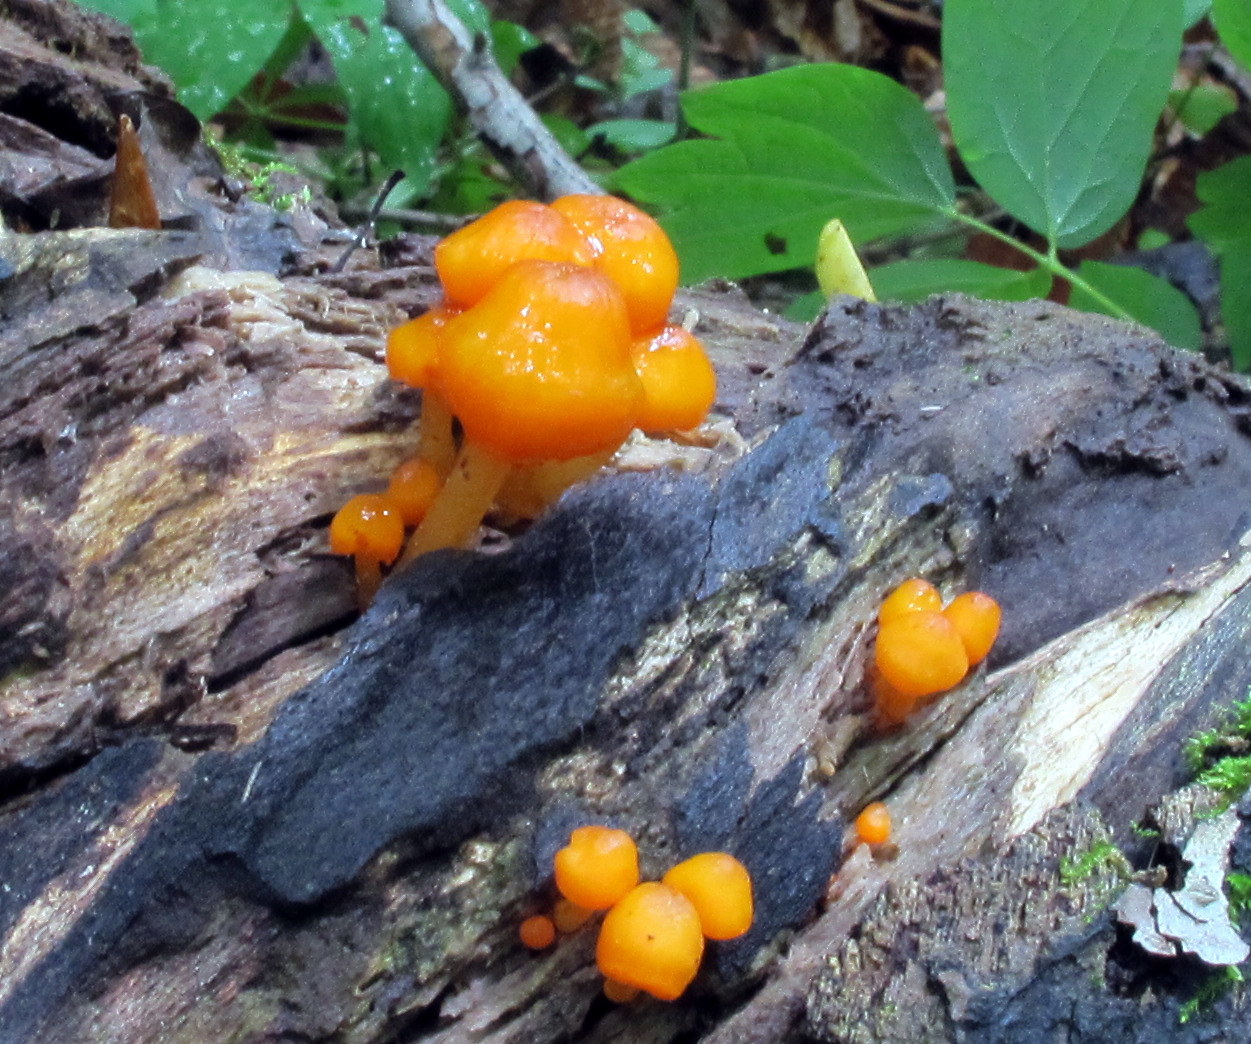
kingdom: Fungi
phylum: Basidiomycota
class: Agaricomycetes
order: Agaricales
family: Mycenaceae
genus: Mycena
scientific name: Mycena leaiana
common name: Orange mycena
